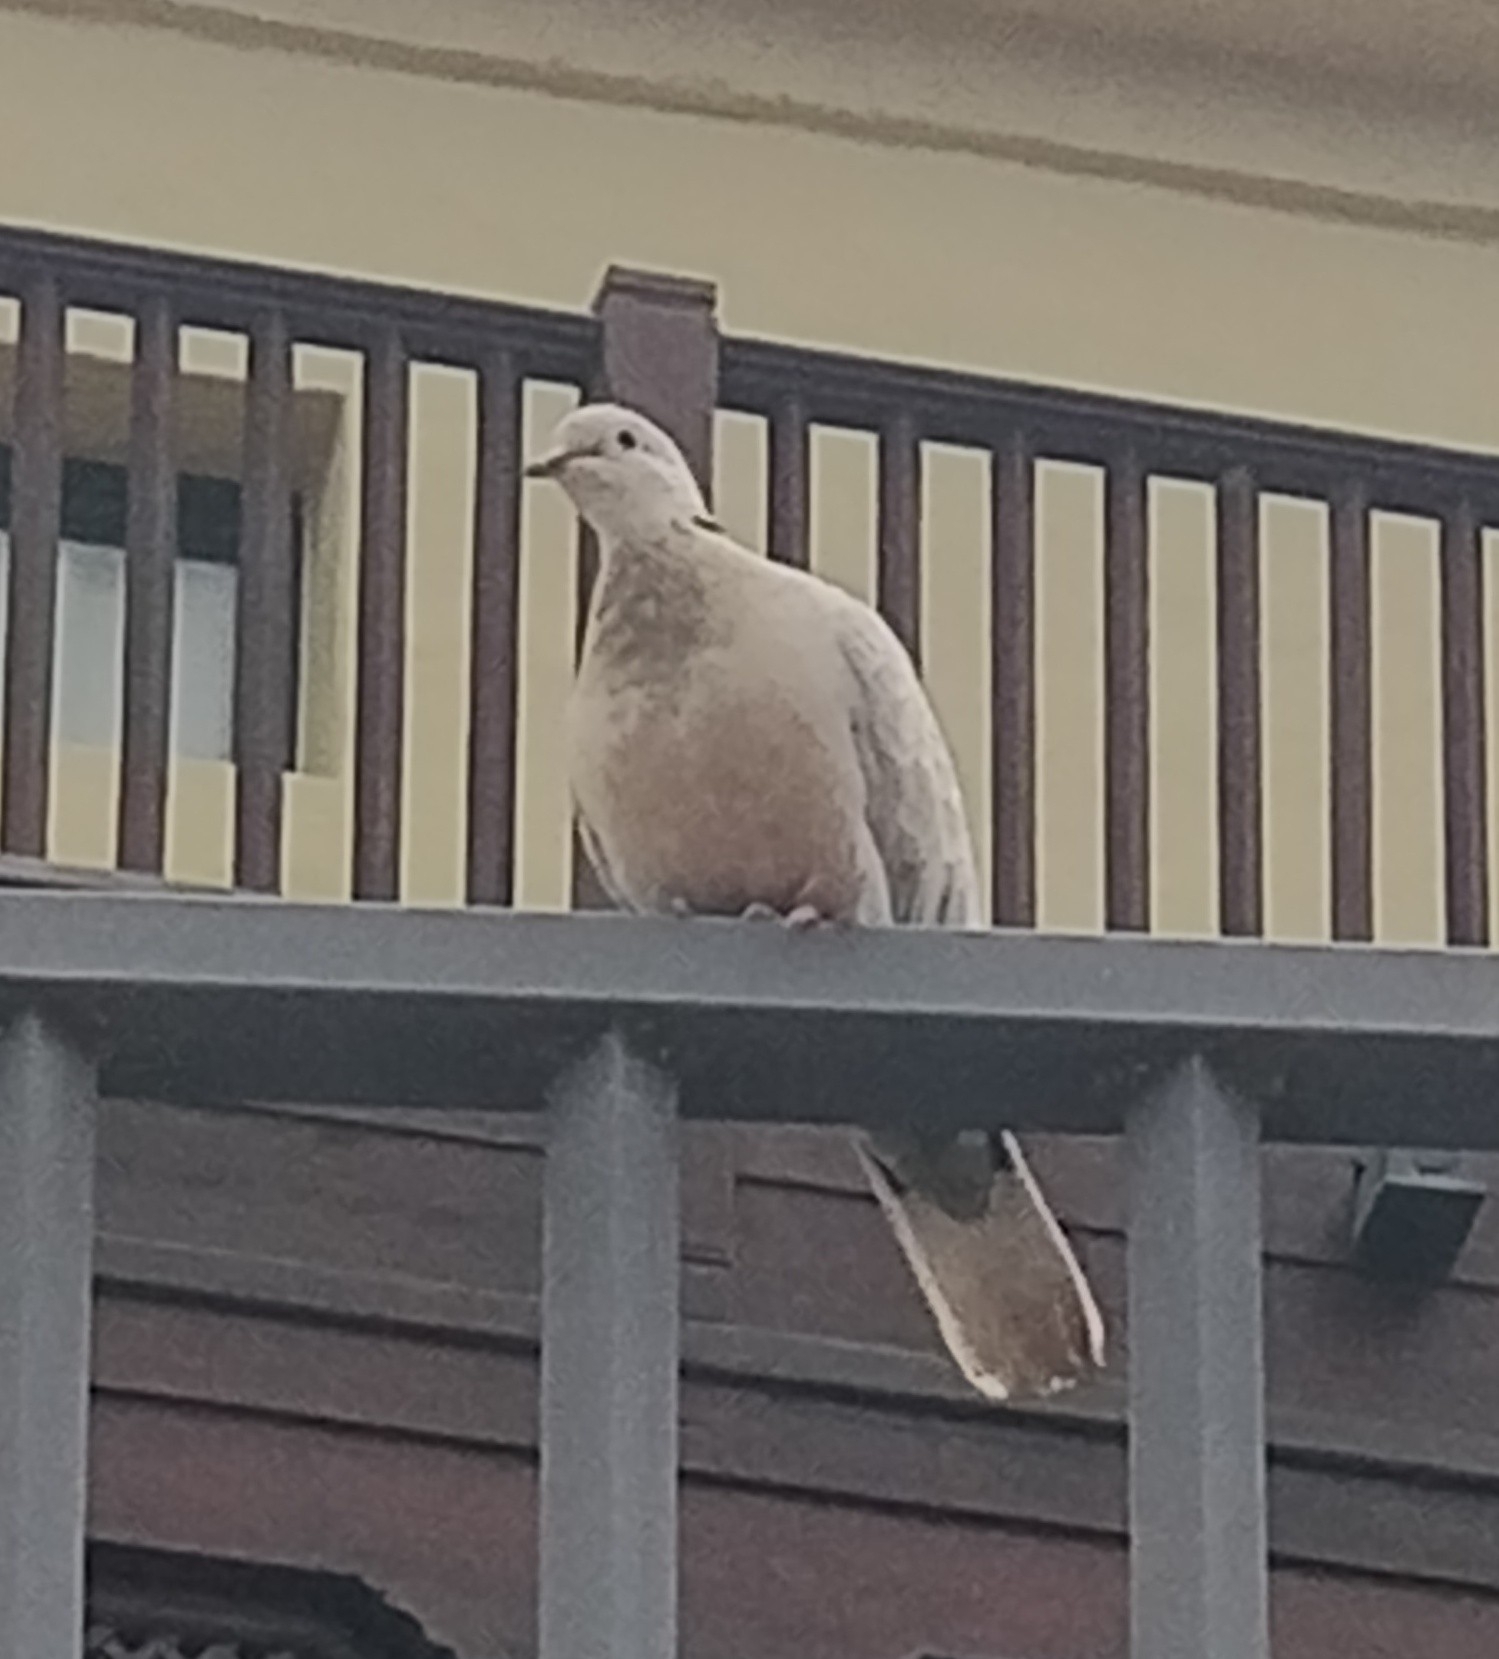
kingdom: Animalia
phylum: Chordata
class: Aves
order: Columbiformes
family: Columbidae
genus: Streptopelia
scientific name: Streptopelia roseogrisea
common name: African collared dove
